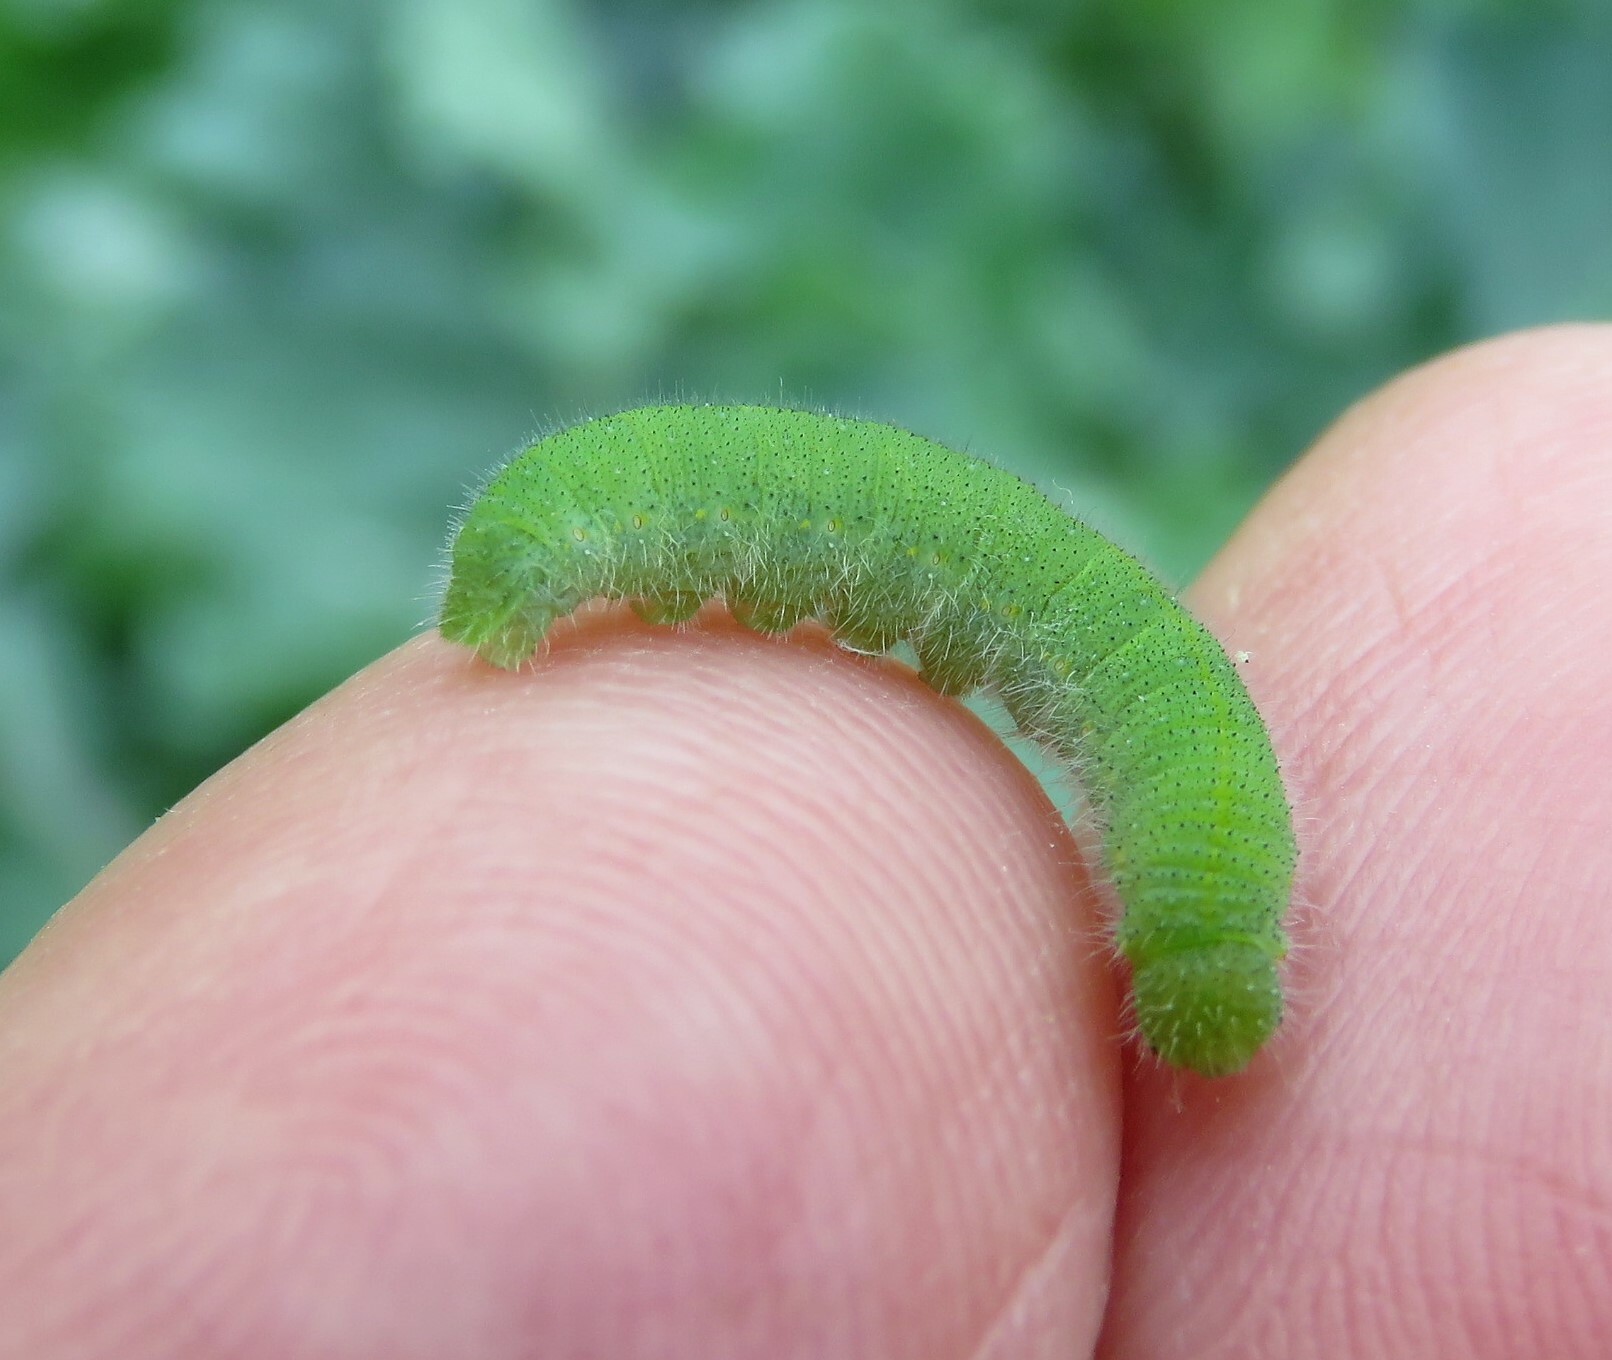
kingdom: Animalia
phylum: Arthropoda
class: Insecta
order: Lepidoptera
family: Pieridae
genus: Pieris
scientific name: Pieris rapae
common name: Small white
